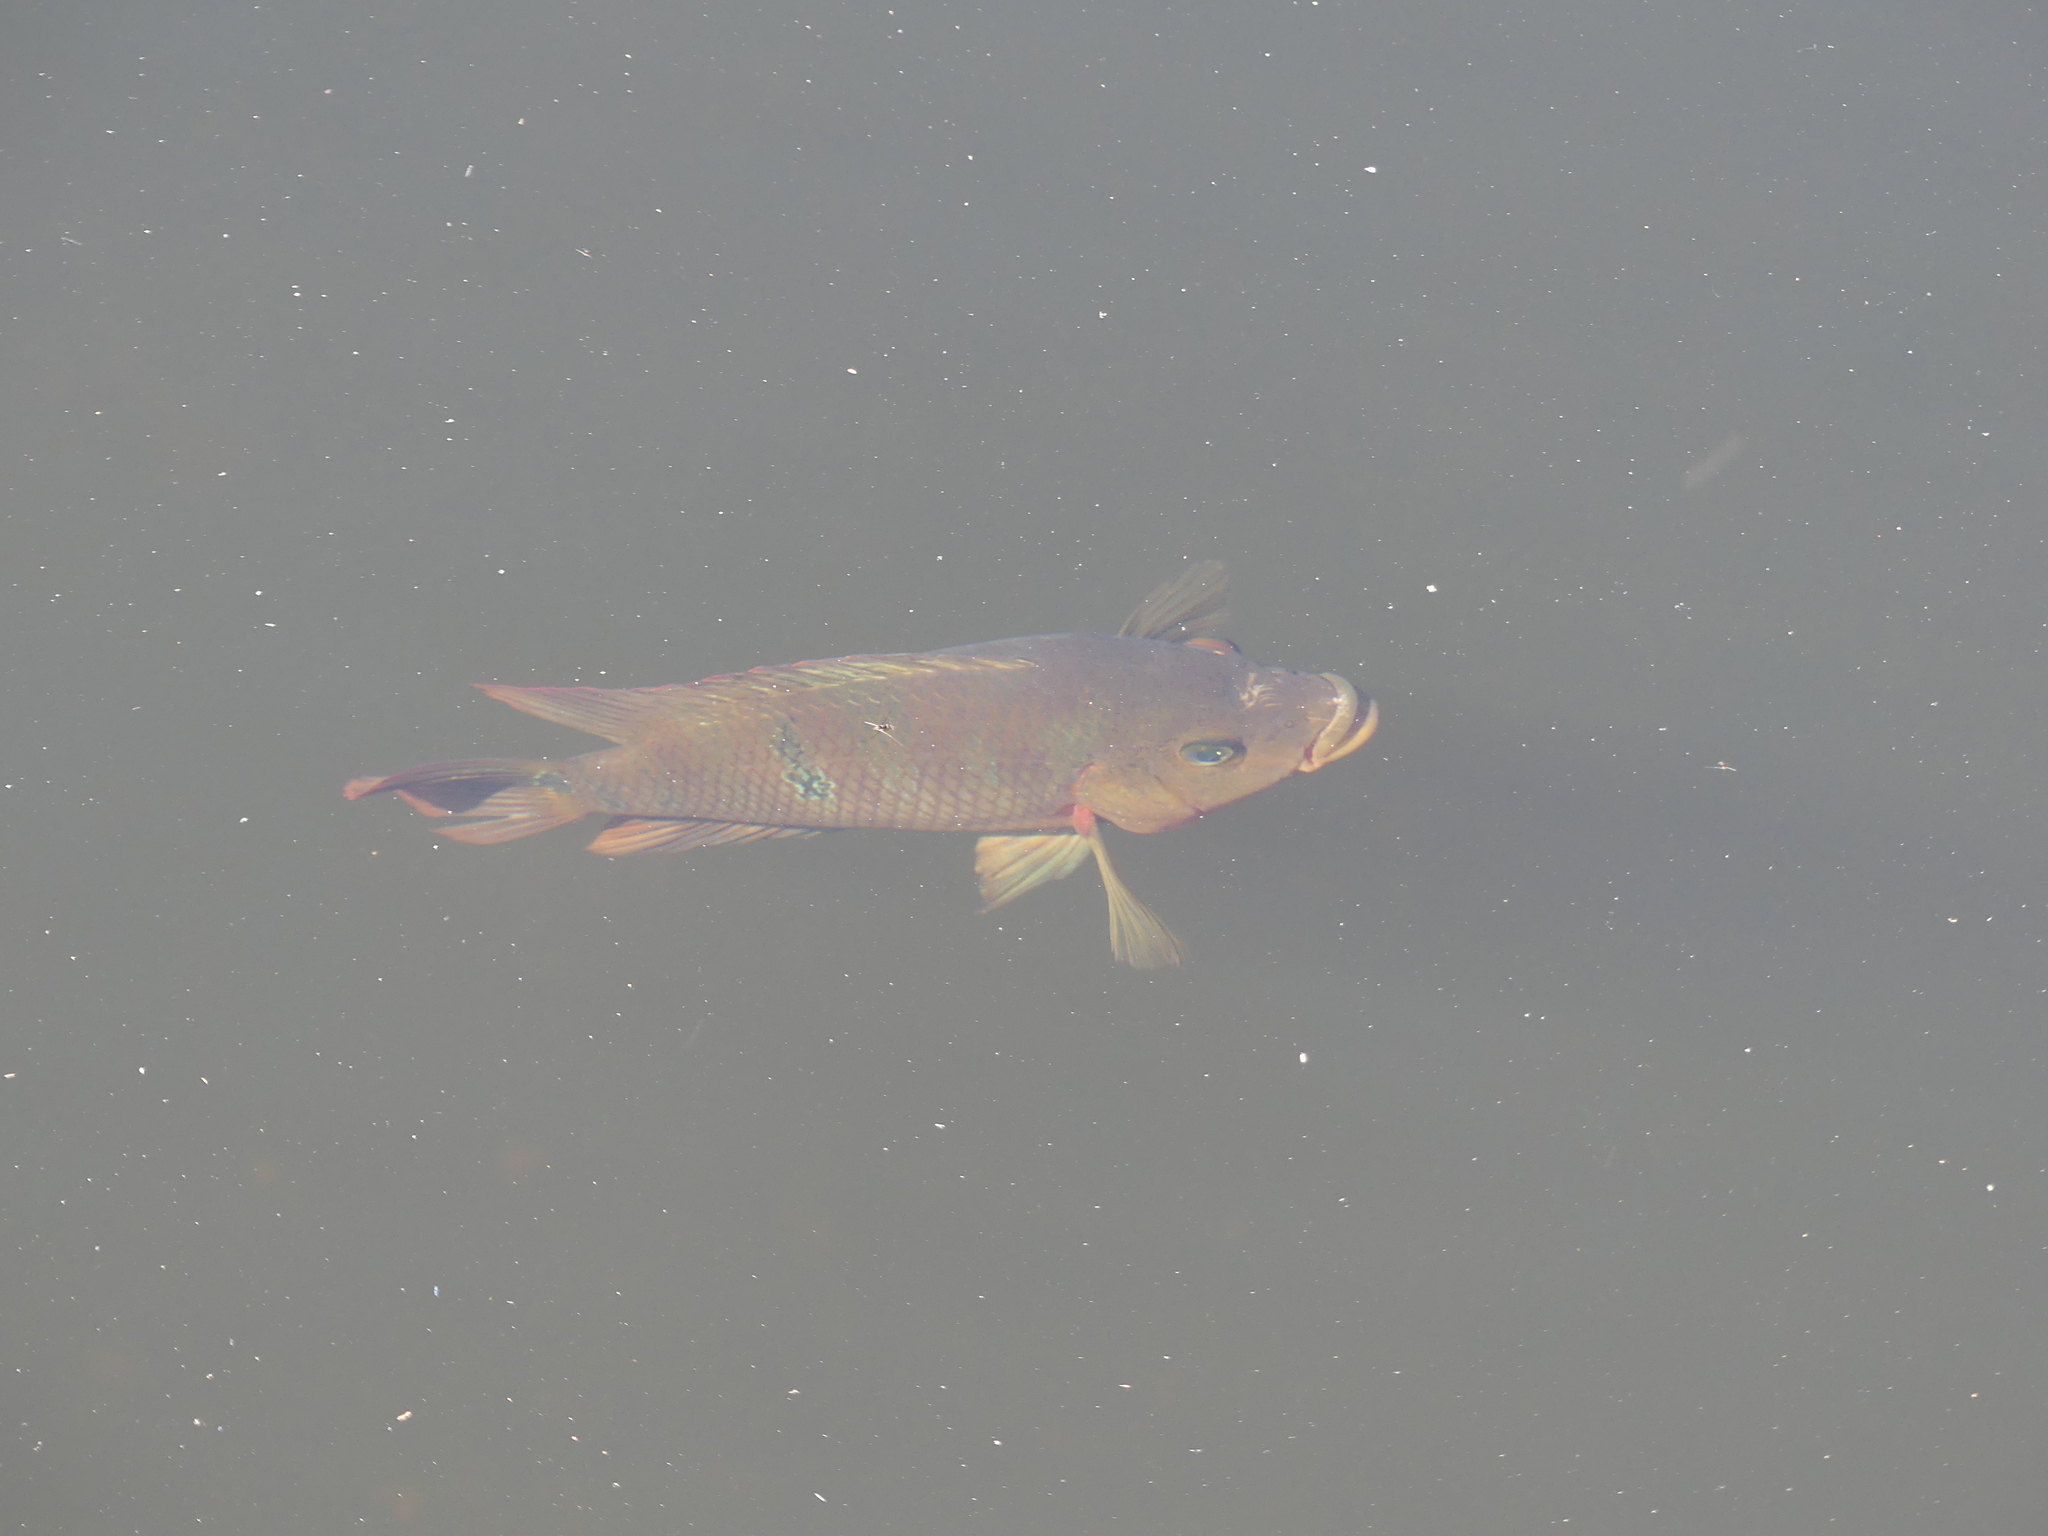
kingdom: Animalia
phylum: Chordata
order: Perciformes
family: Cichlidae
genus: Mayaheros
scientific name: Mayaheros urophthalmus
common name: Mayan cichlid
